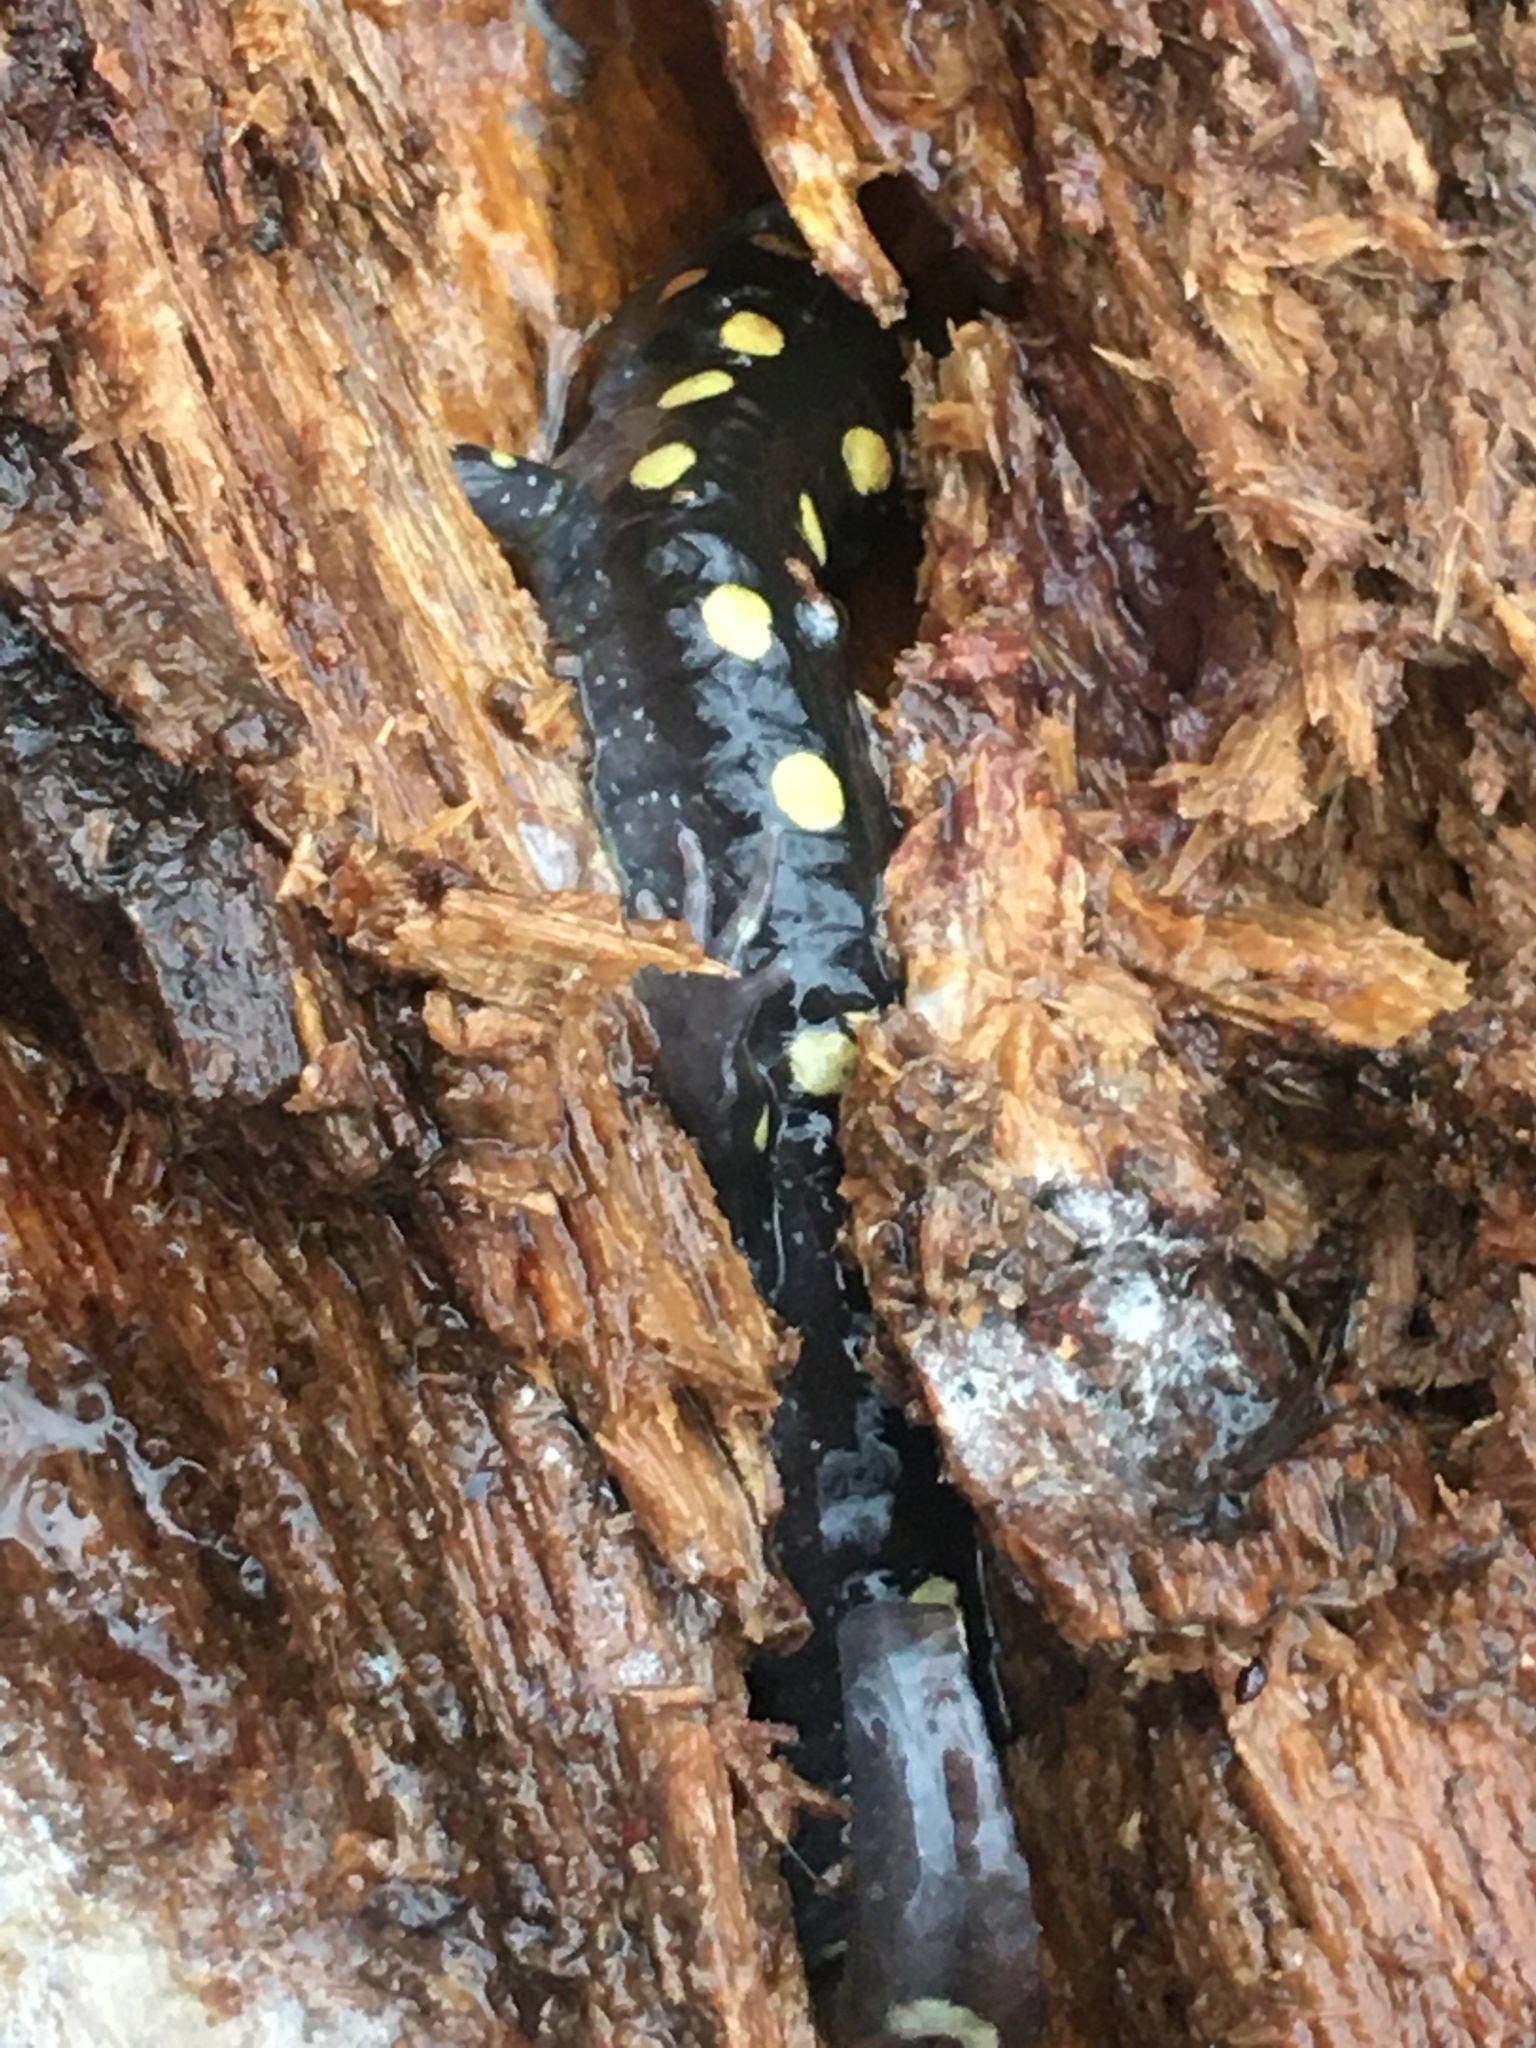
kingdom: Animalia
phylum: Chordata
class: Amphibia
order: Caudata
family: Ambystomatidae
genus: Ambystoma
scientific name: Ambystoma maculatum
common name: Spotted salamander
